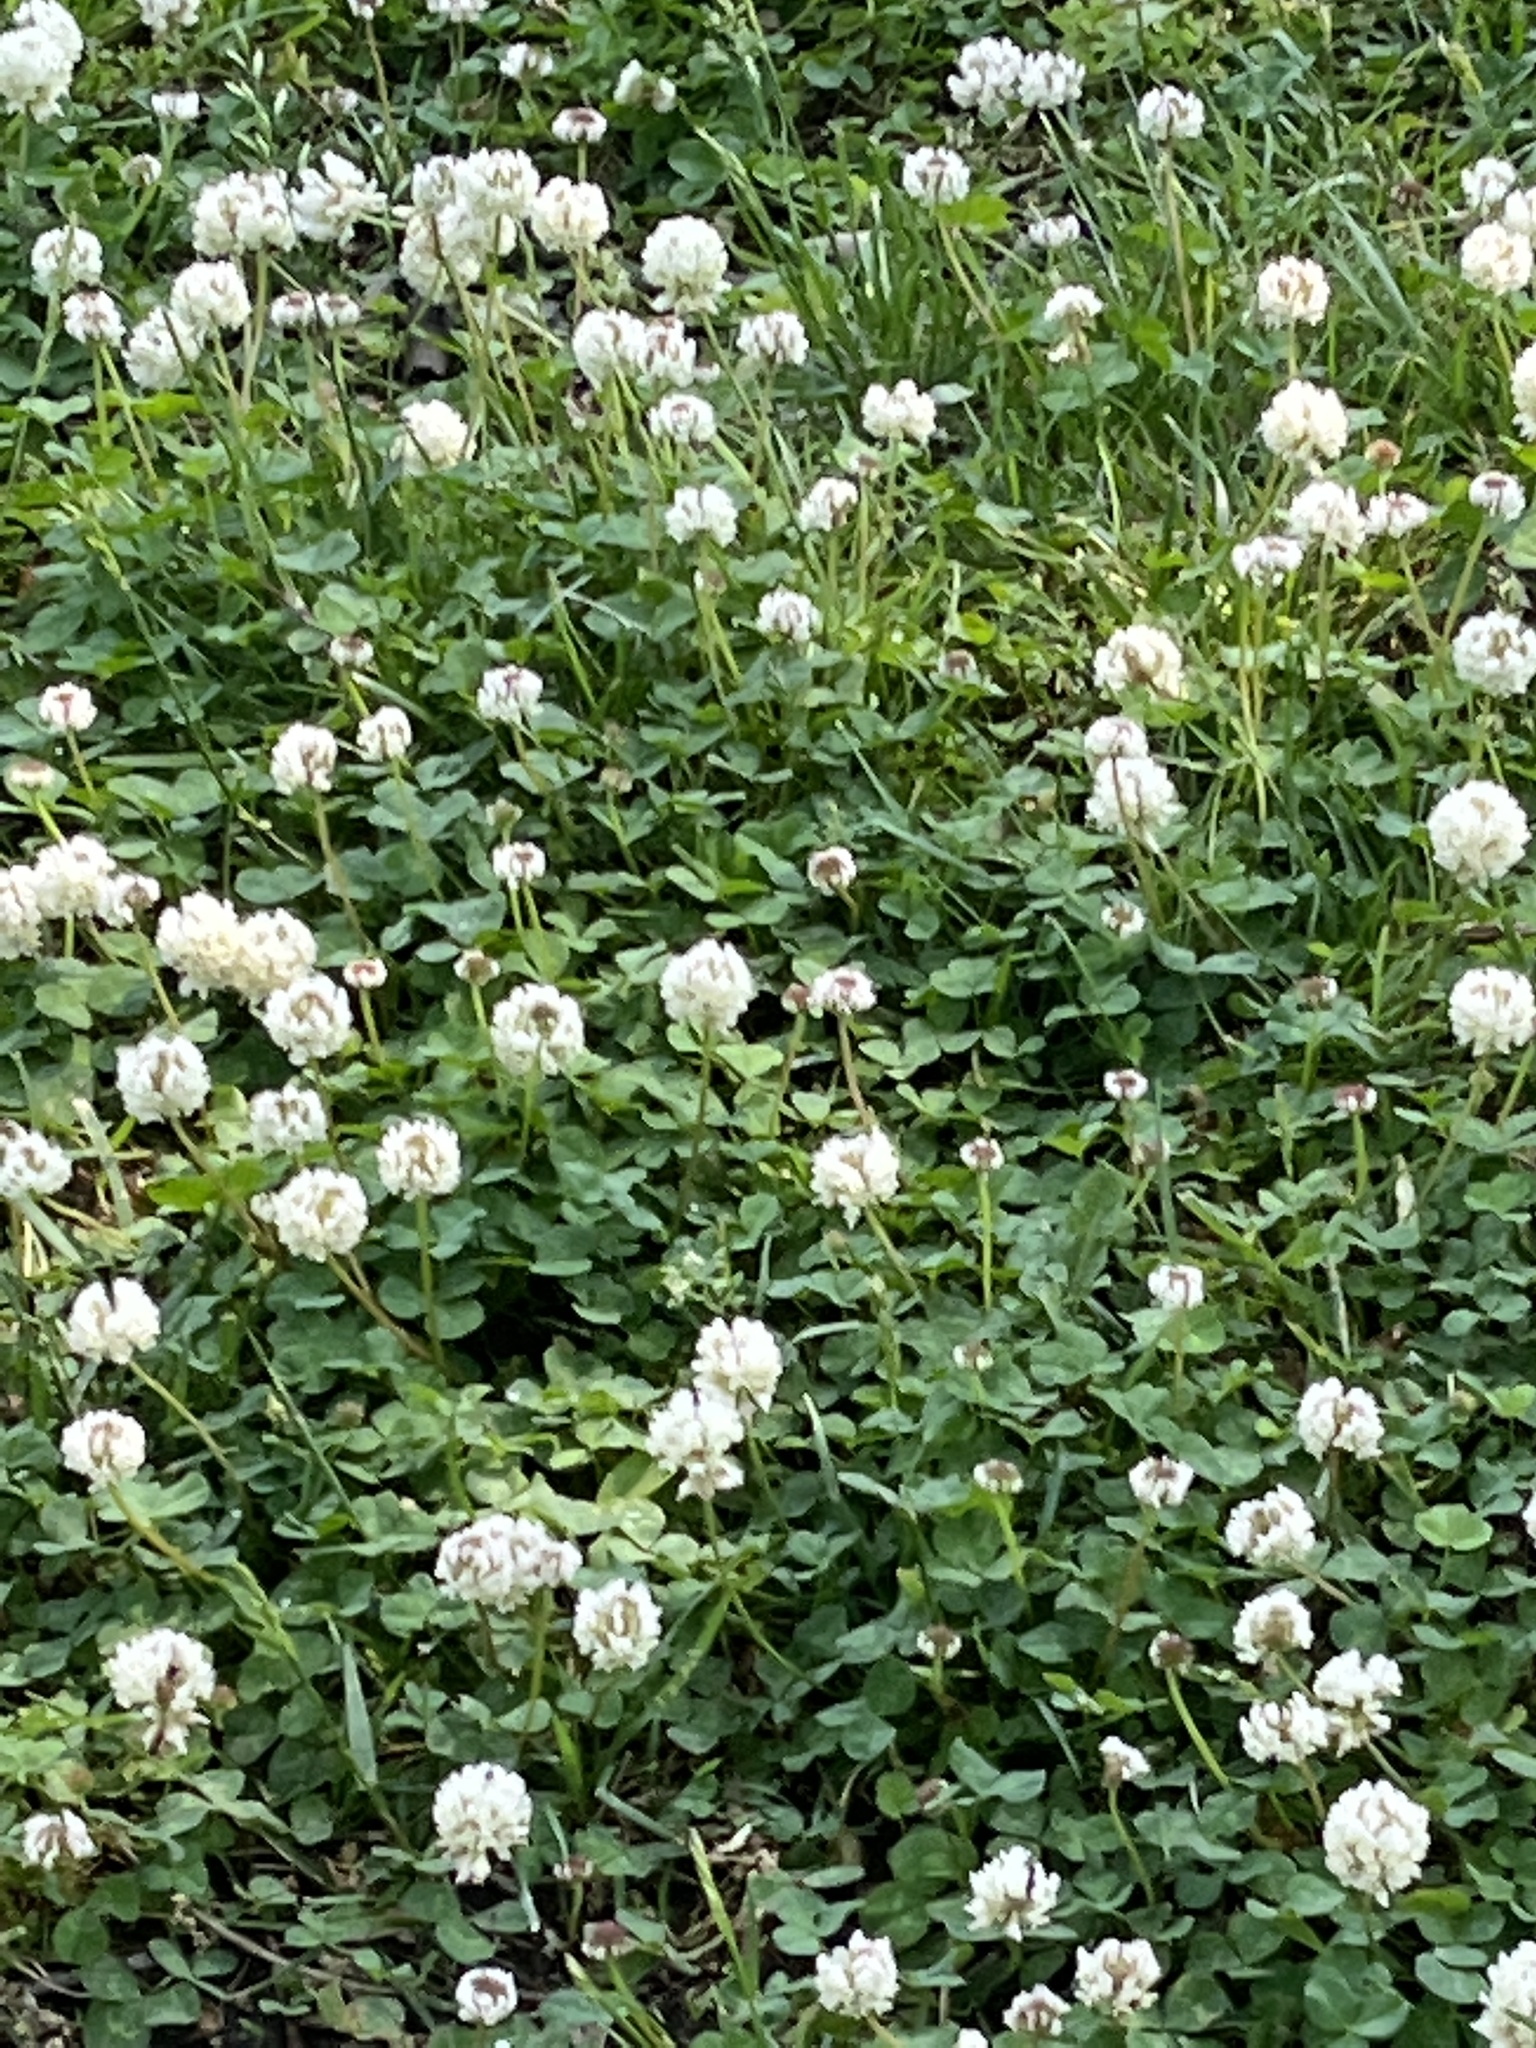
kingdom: Plantae
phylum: Tracheophyta
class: Magnoliopsida
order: Fabales
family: Fabaceae
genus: Trifolium
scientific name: Trifolium repens
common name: White clover
